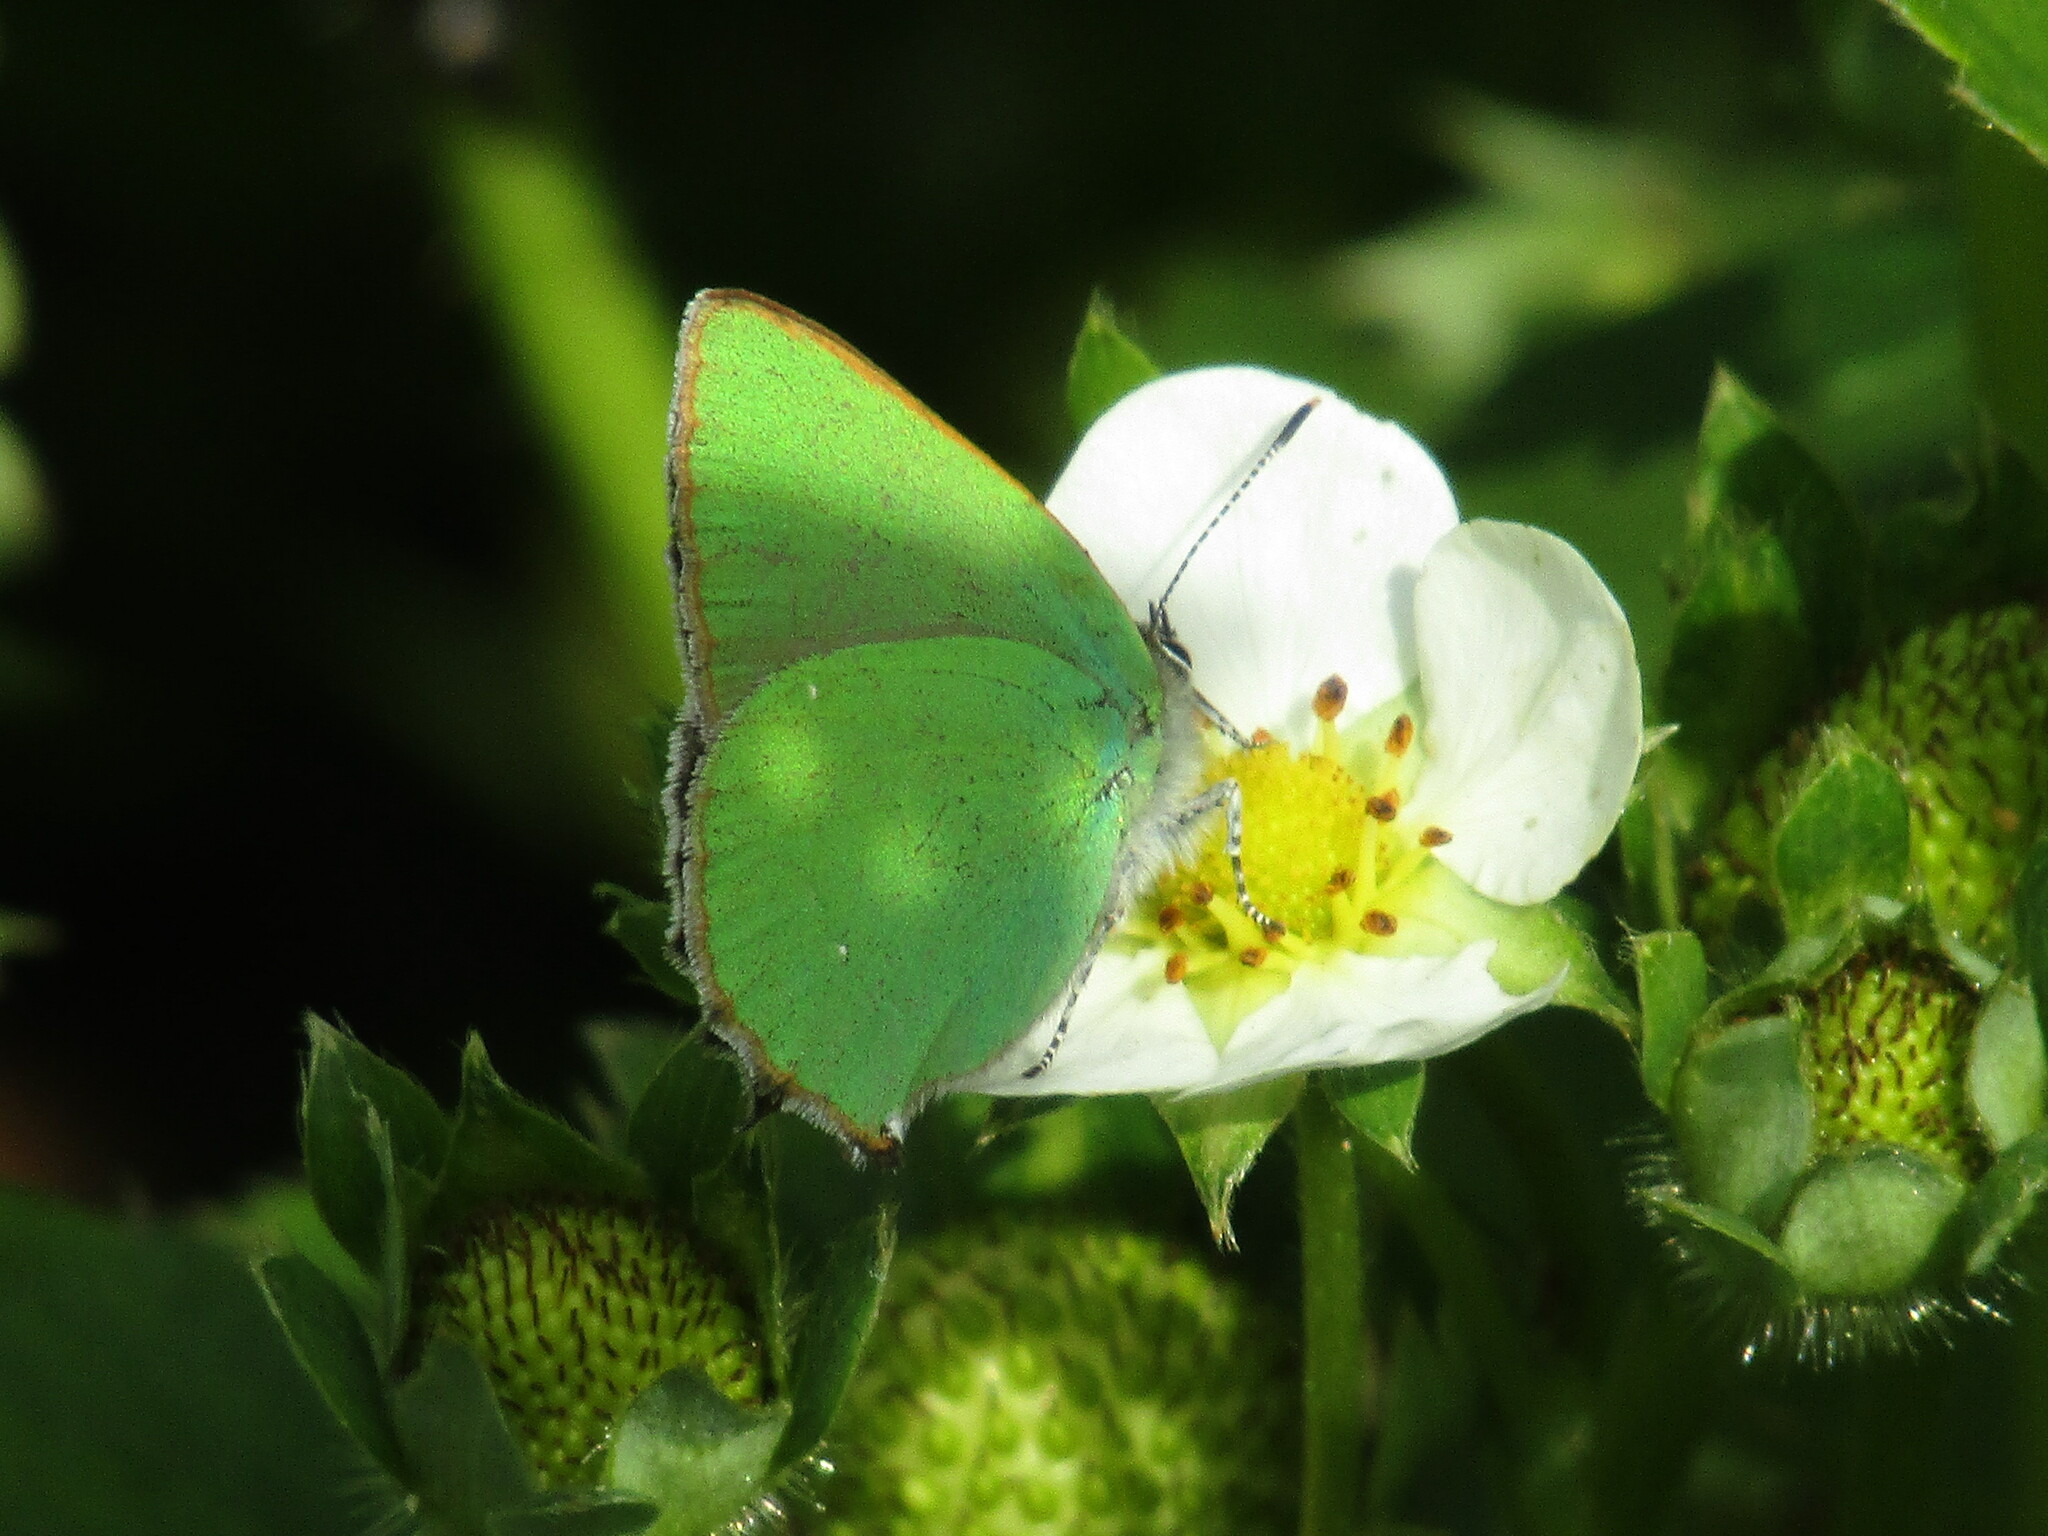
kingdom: Animalia
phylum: Arthropoda
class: Insecta
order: Lepidoptera
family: Lycaenidae
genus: Callophrys
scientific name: Callophrys rubi
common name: Green hairstreak
